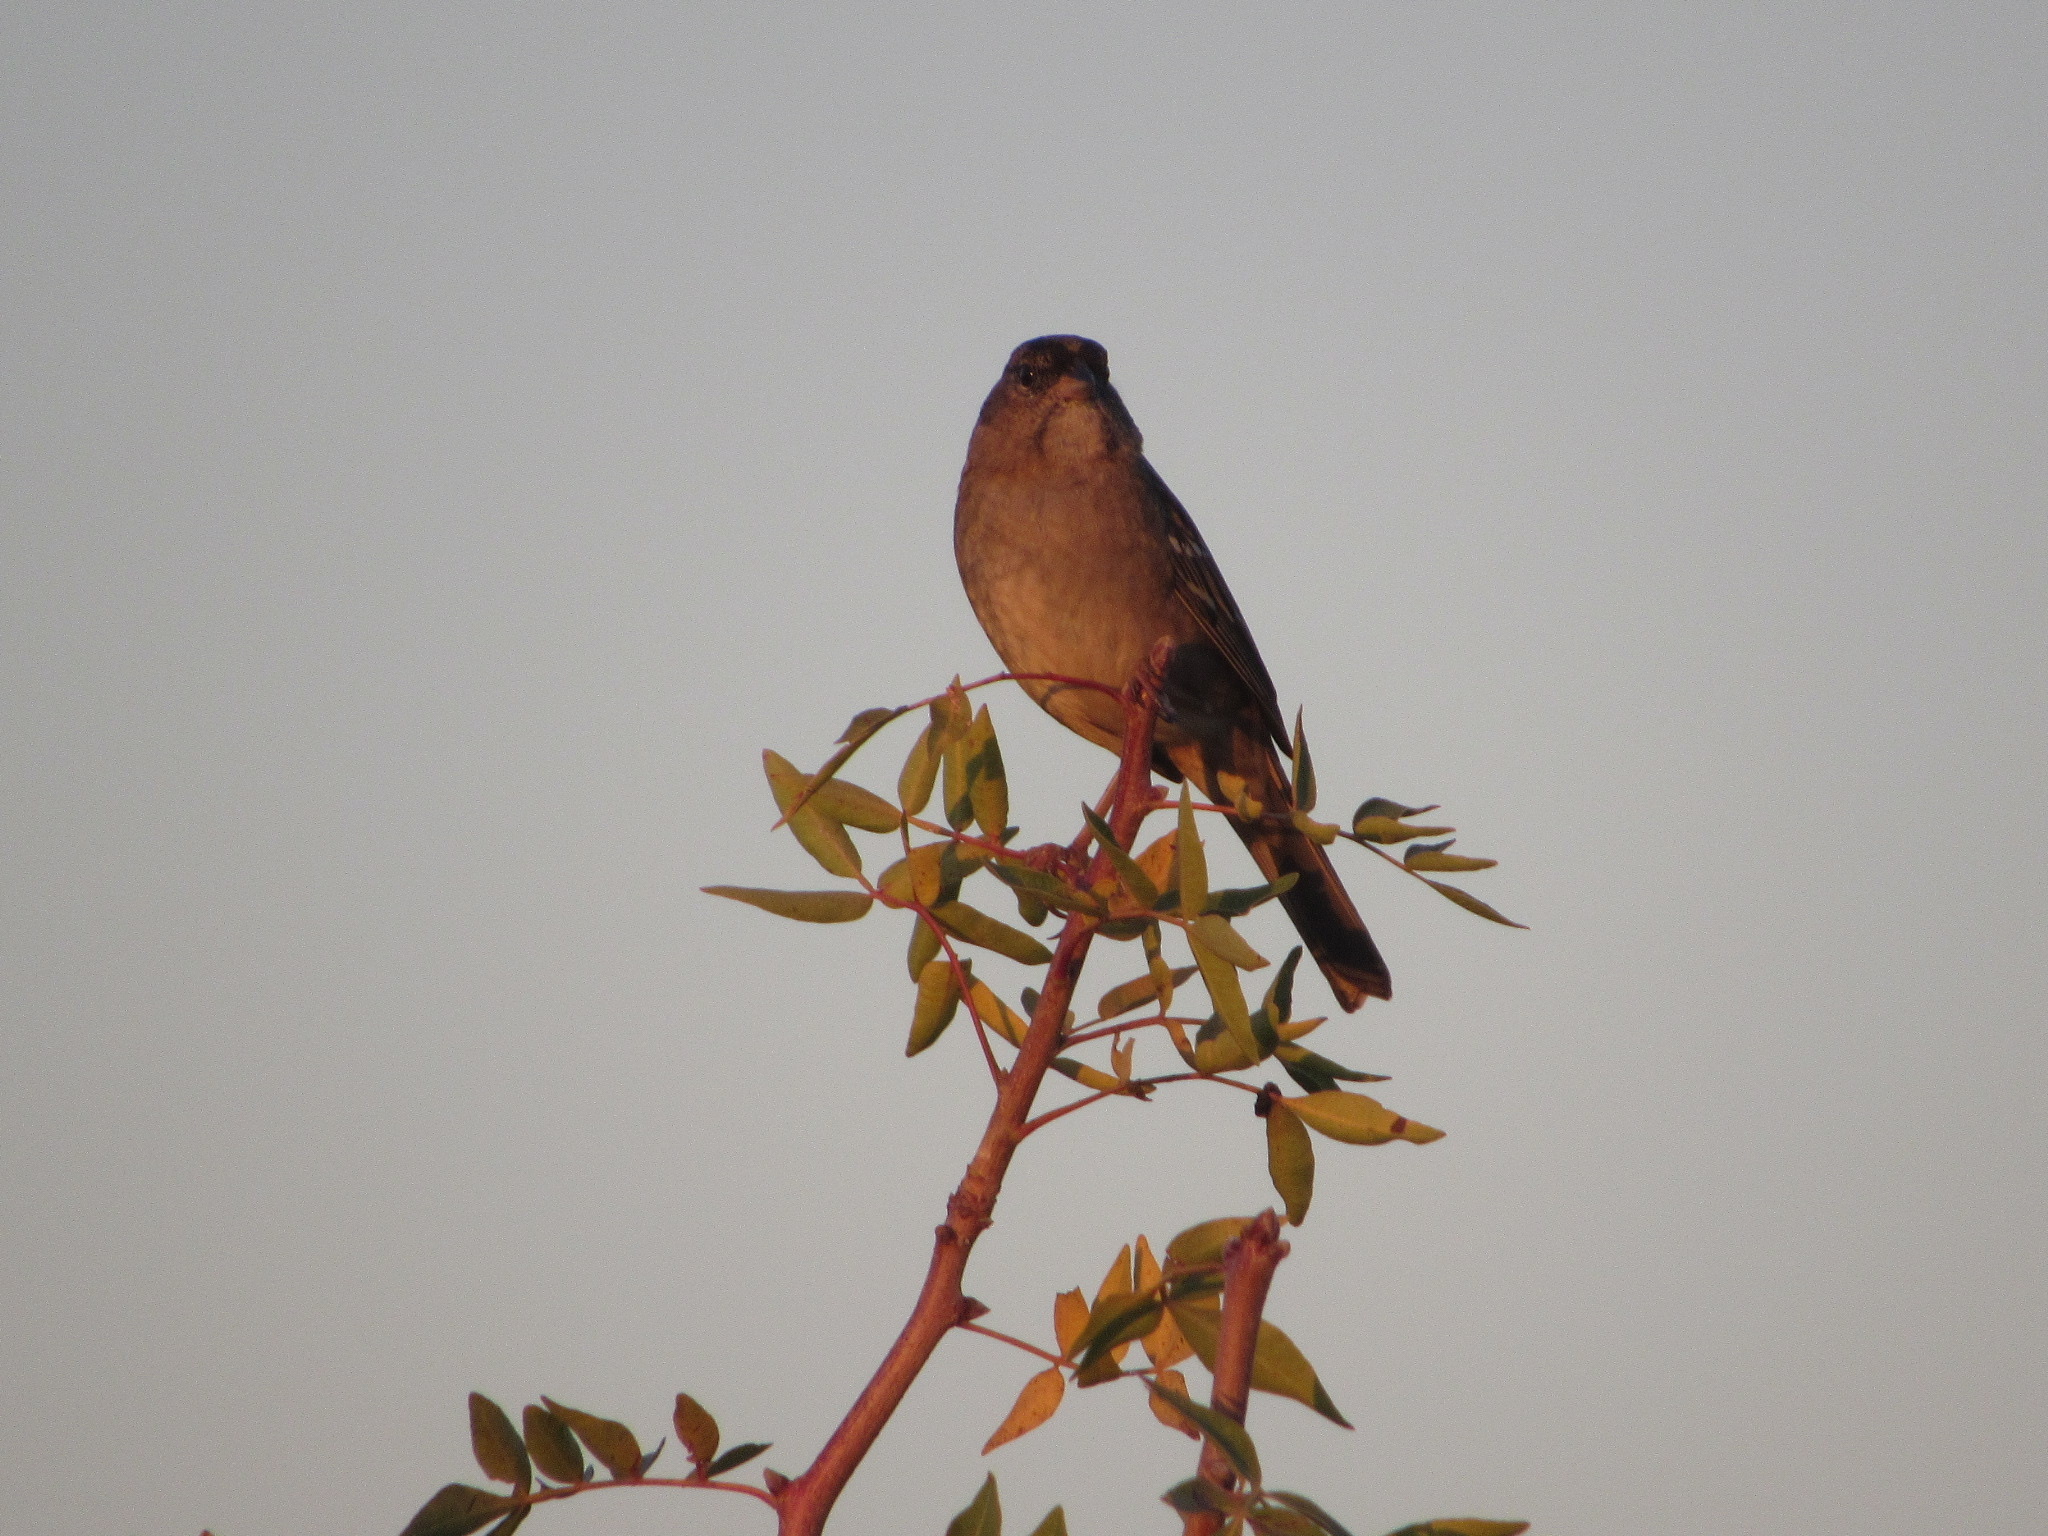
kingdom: Animalia
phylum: Chordata
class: Aves
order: Passeriformes
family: Passerellidae
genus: Zonotrichia
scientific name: Zonotrichia atricapilla
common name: Golden-crowned sparrow
